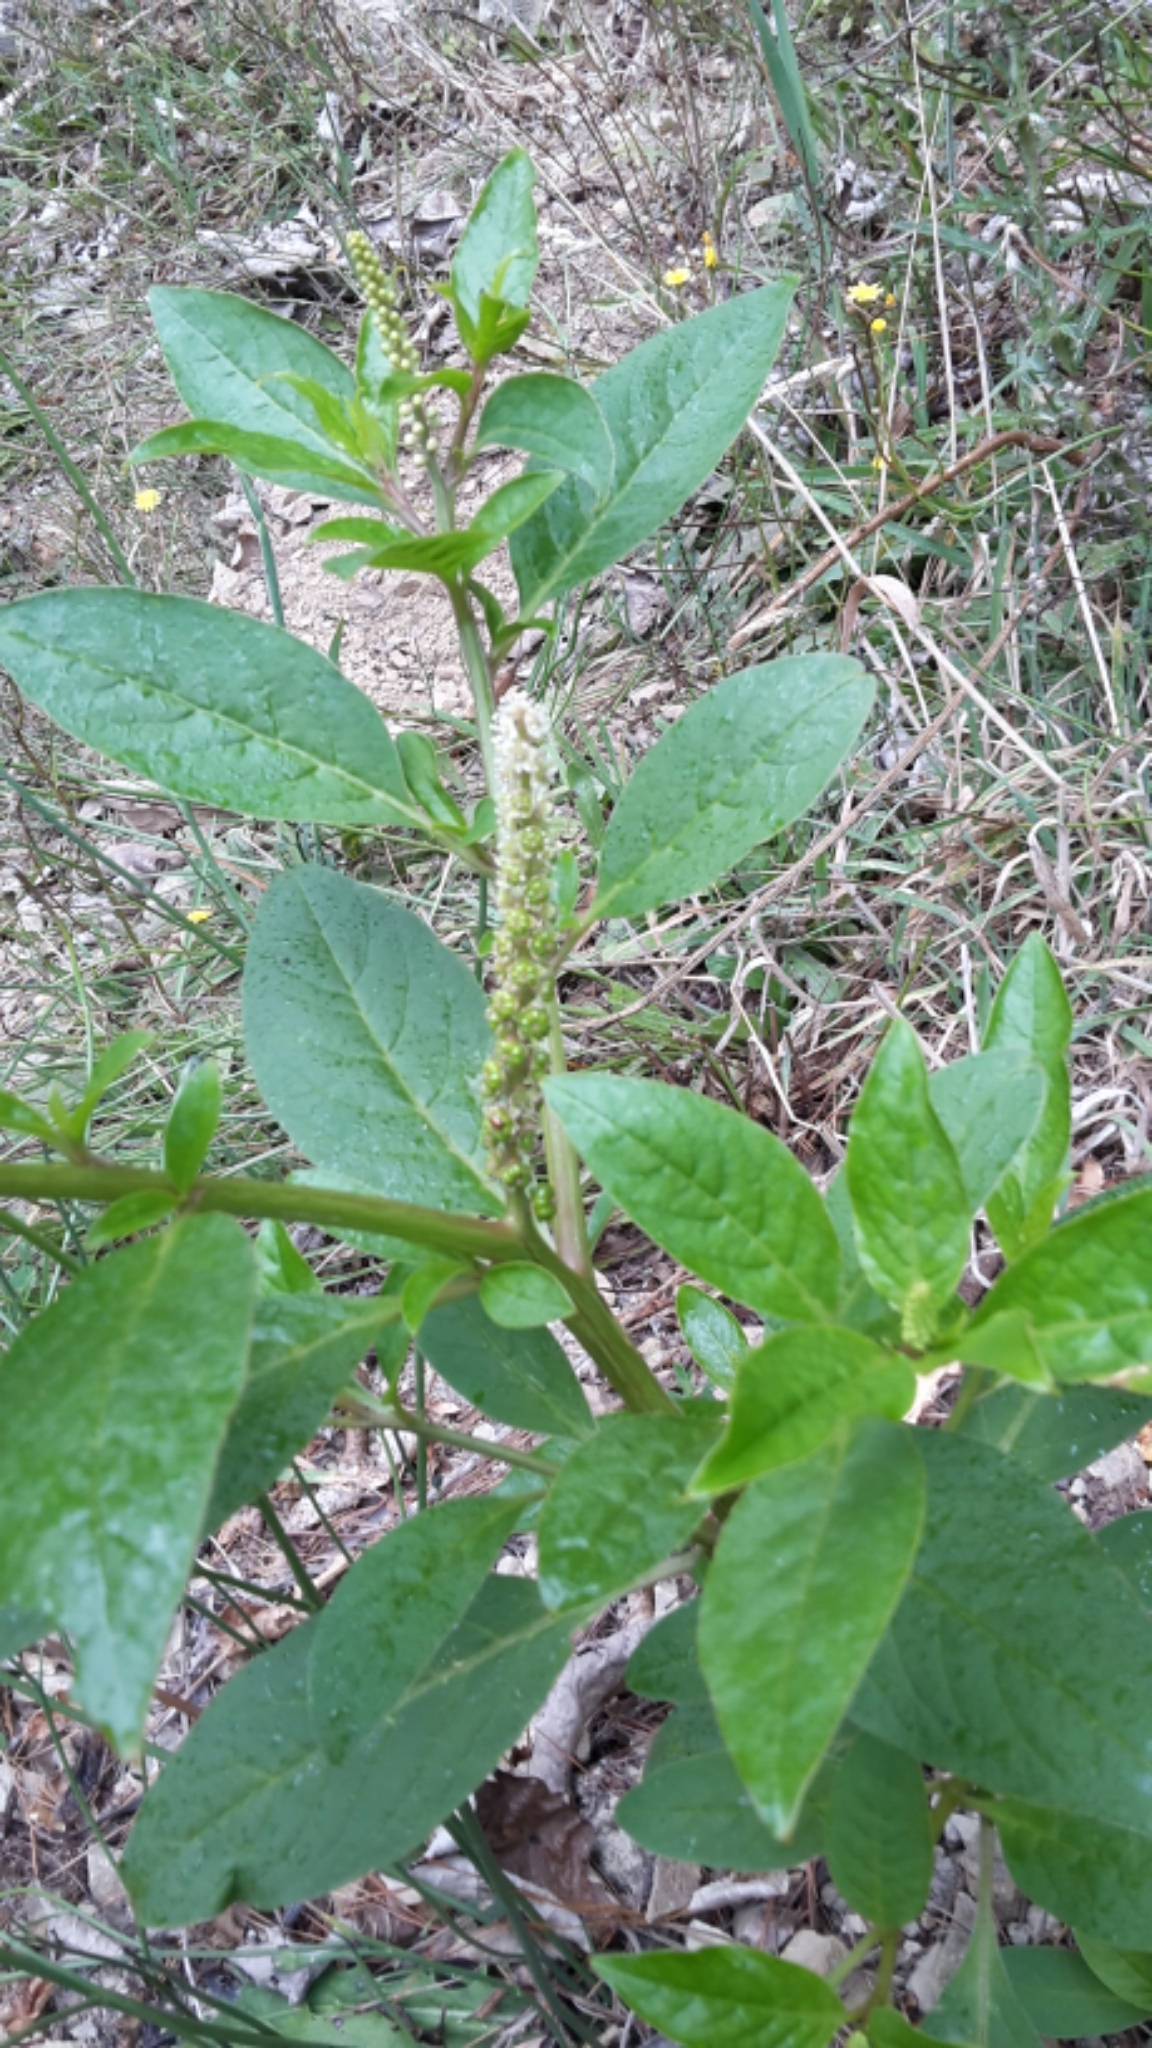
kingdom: Plantae
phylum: Tracheophyta
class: Magnoliopsida
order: Caryophyllales
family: Phytolaccaceae
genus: Phytolacca
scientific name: Phytolacca icosandra
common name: Button pokeweed
